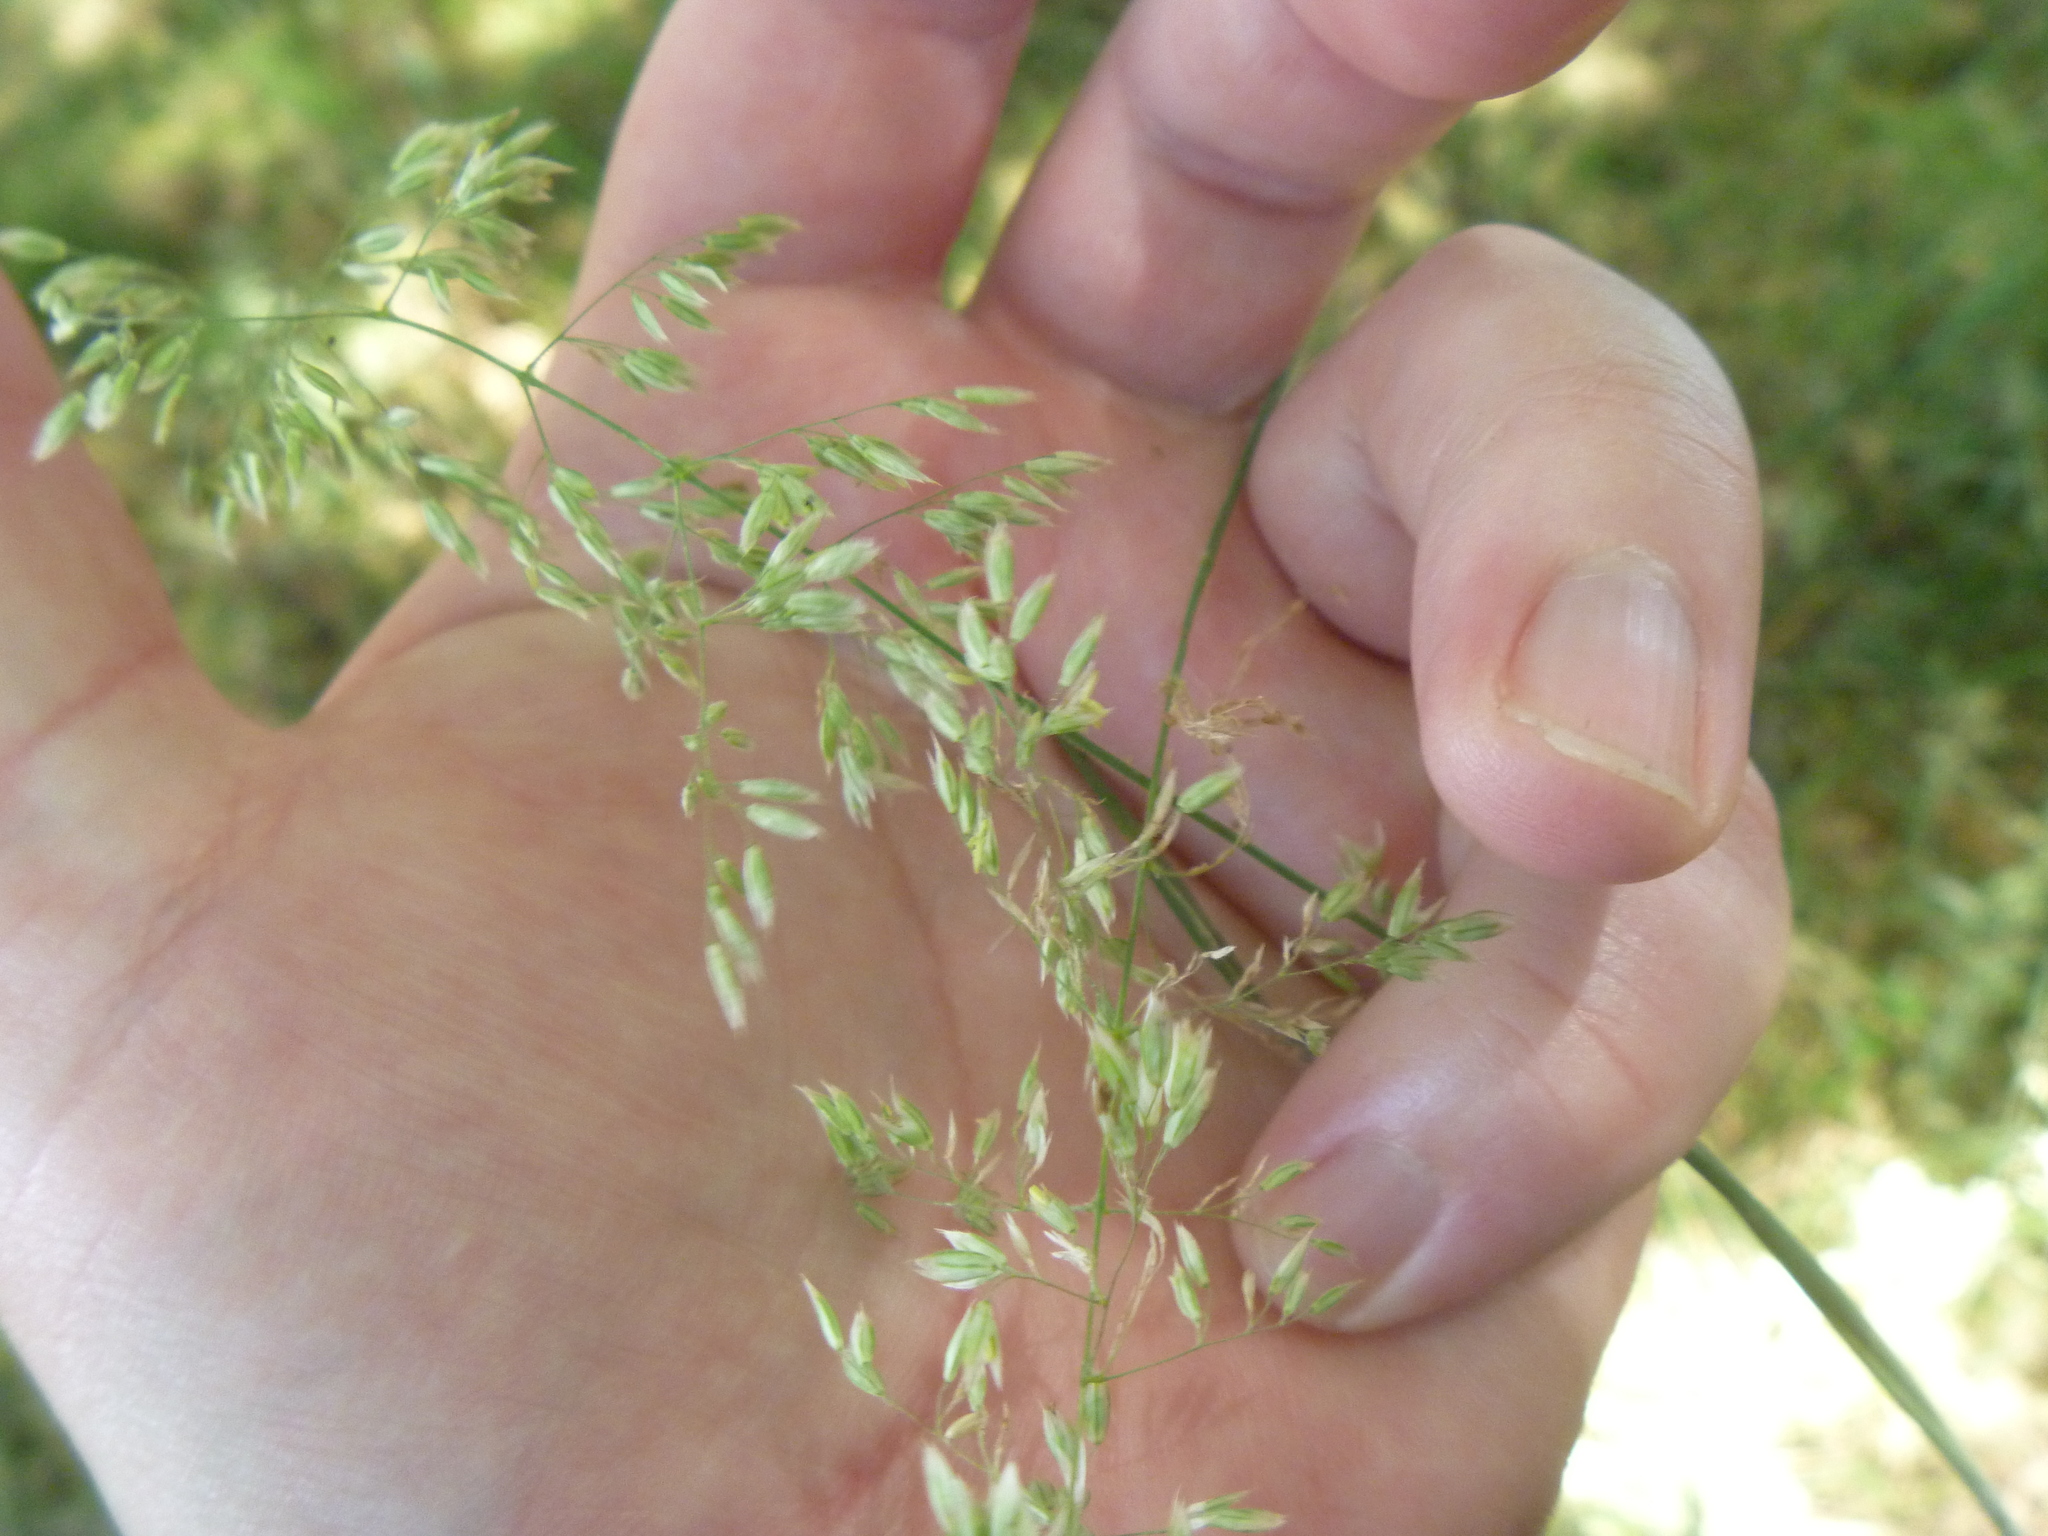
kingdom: Plantae
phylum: Tracheophyta
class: Liliopsida
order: Poales
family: Poaceae
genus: Holcus
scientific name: Holcus lanatus
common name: Yorkshire-fog
